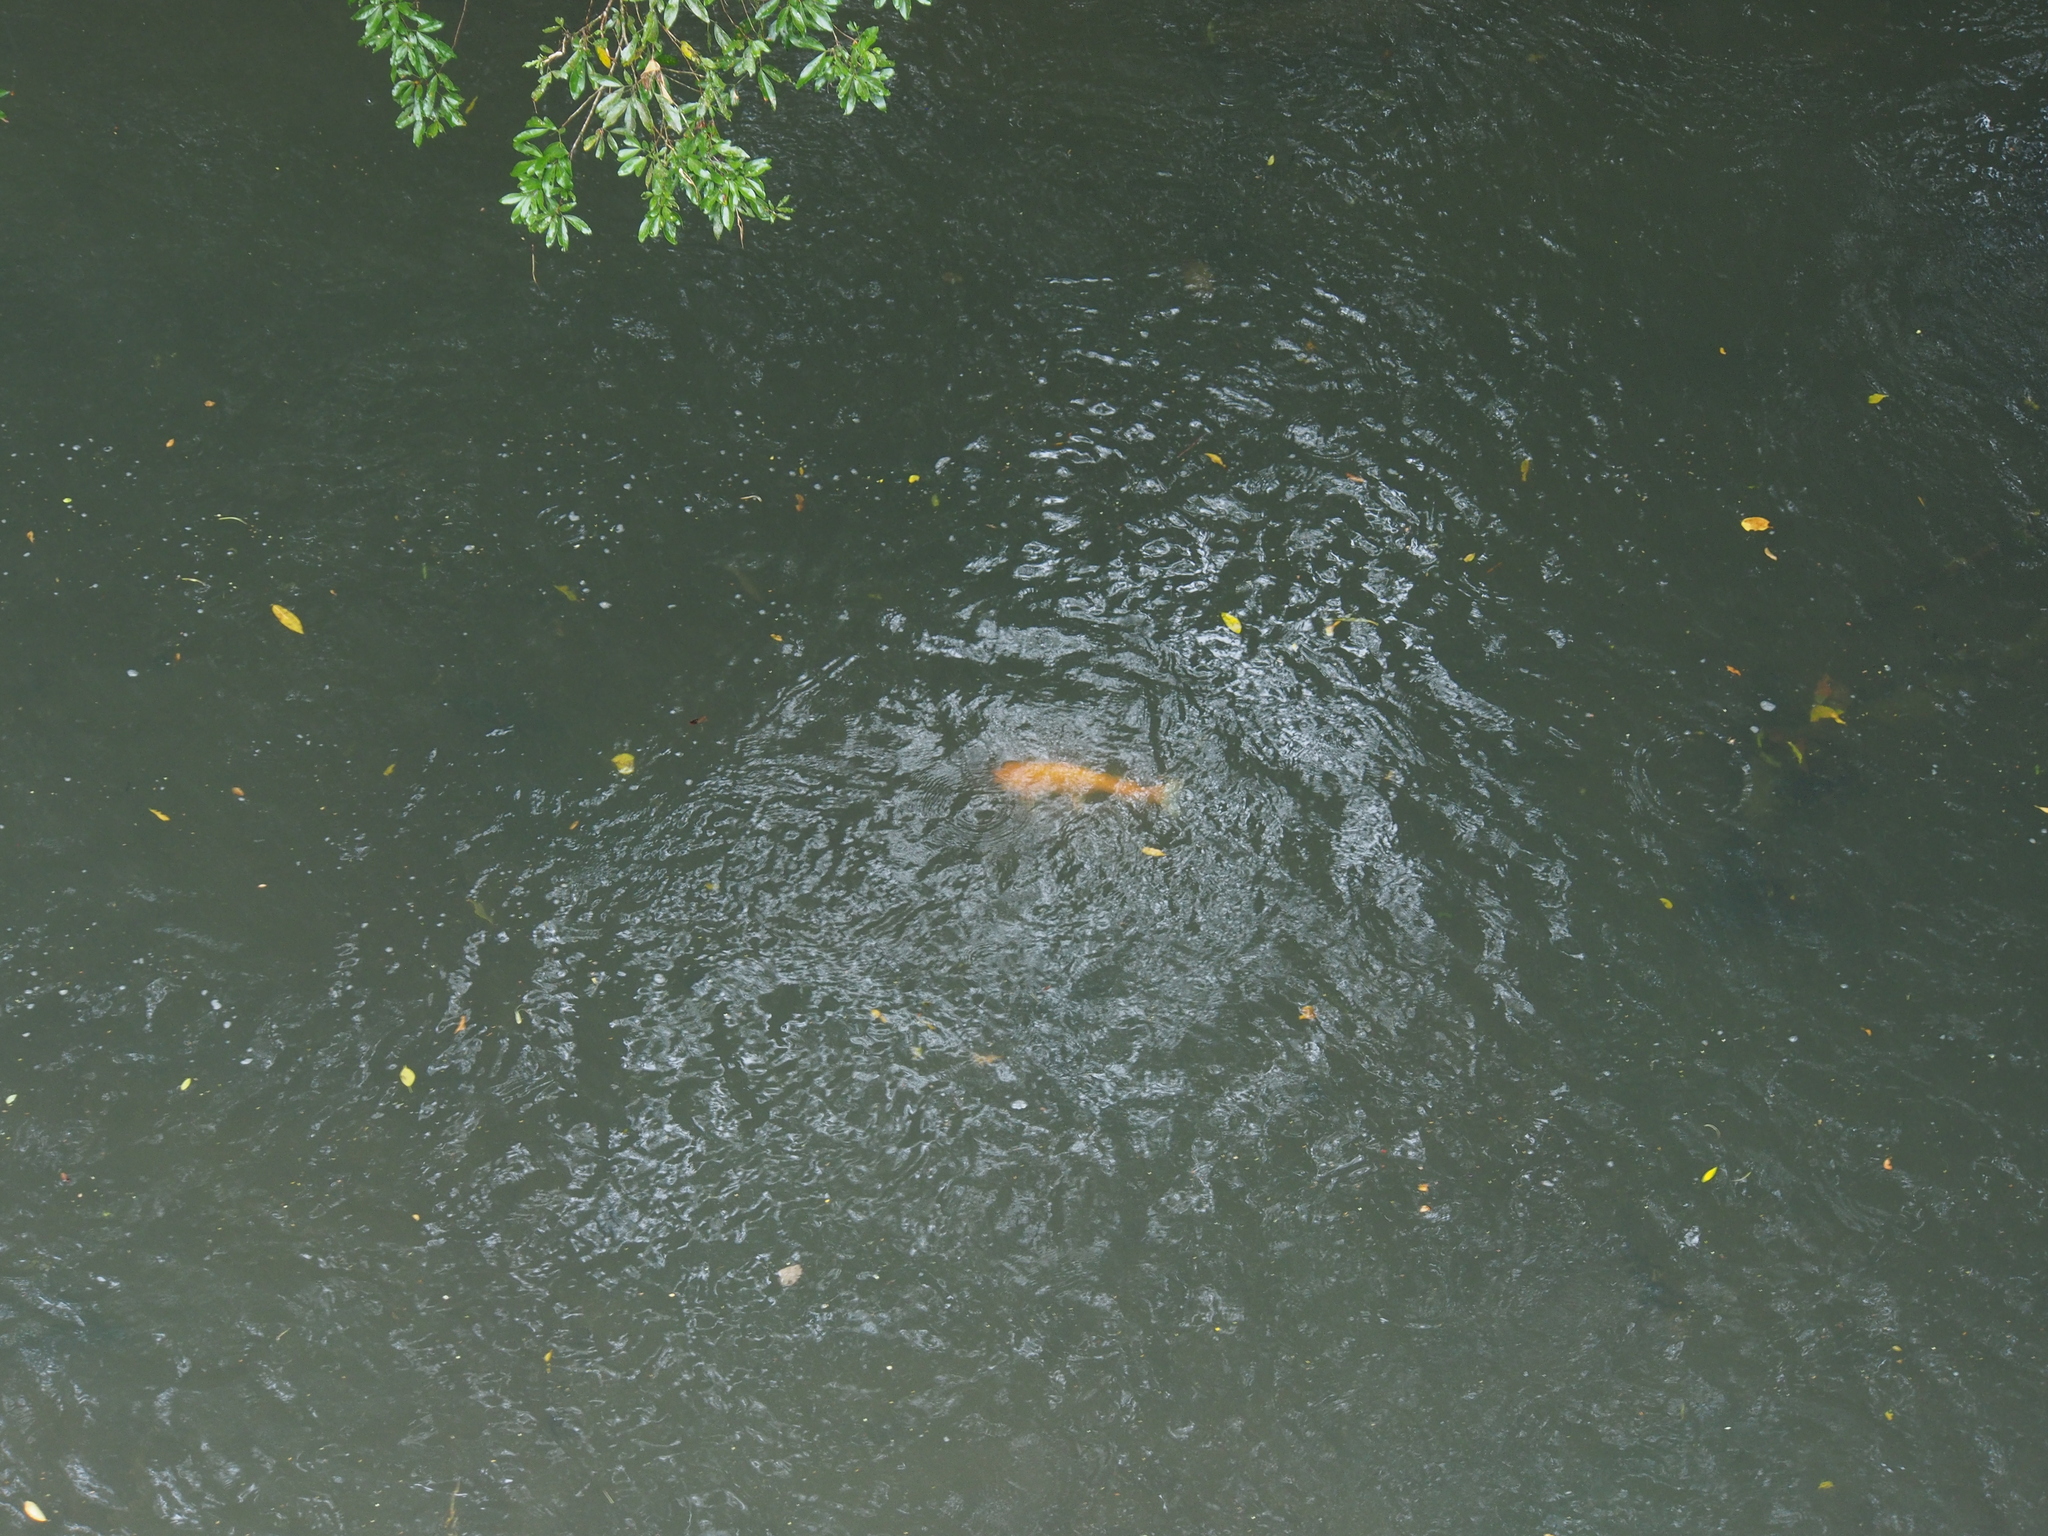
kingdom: Animalia
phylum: Chordata
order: Cypriniformes
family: Cyprinidae
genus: Cyprinus
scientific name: Cyprinus rubrofuscus
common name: Koi
